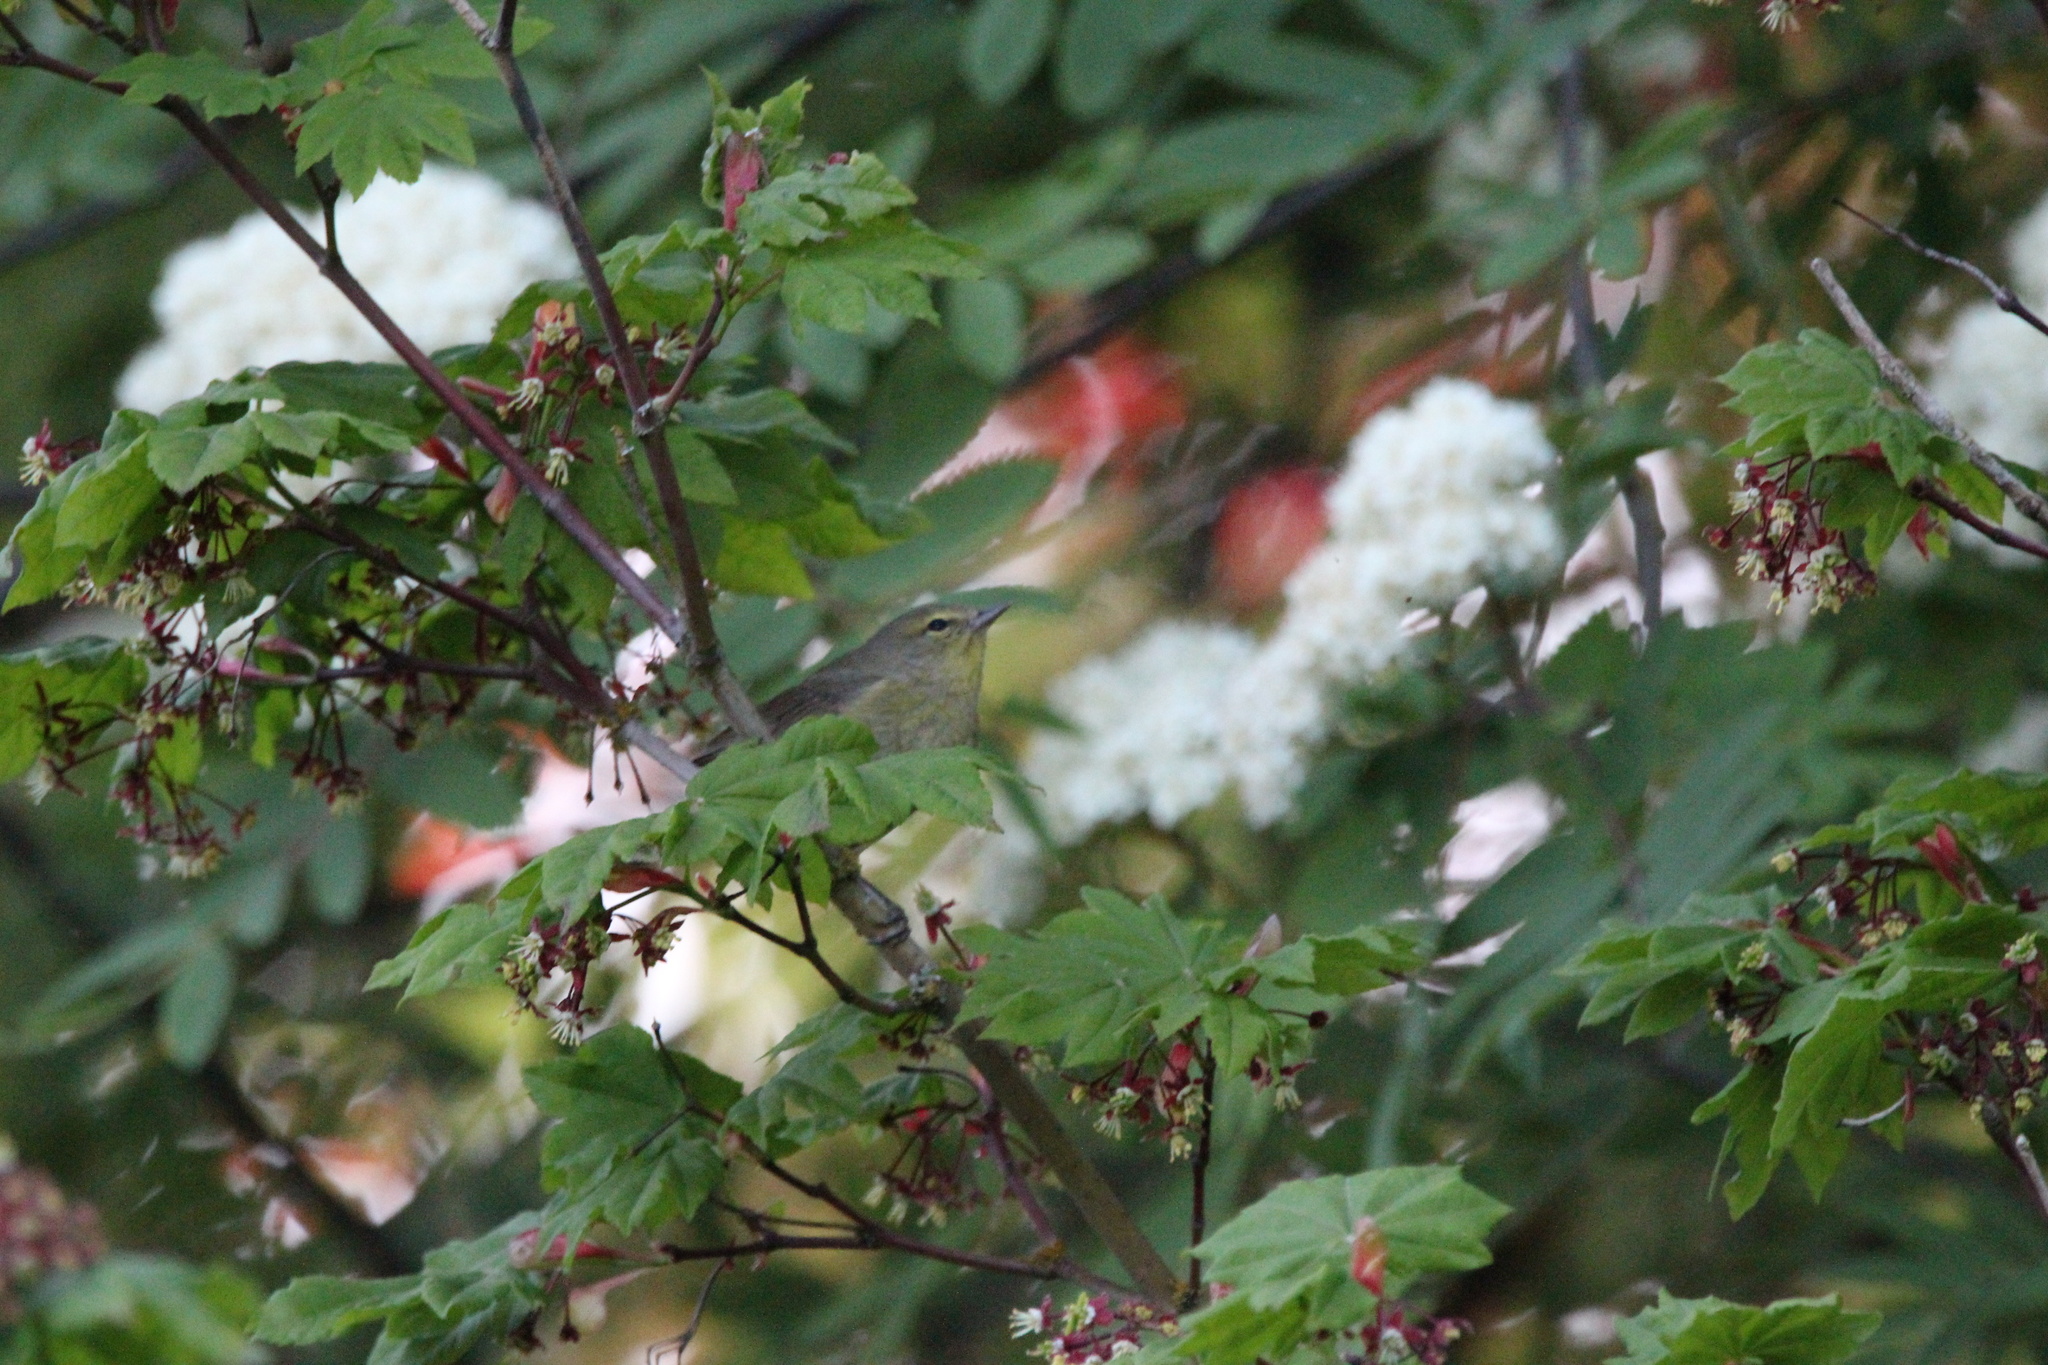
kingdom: Animalia
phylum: Chordata
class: Aves
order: Passeriformes
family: Parulidae
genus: Leiothlypis
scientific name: Leiothlypis celata
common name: Orange-crowned warbler
